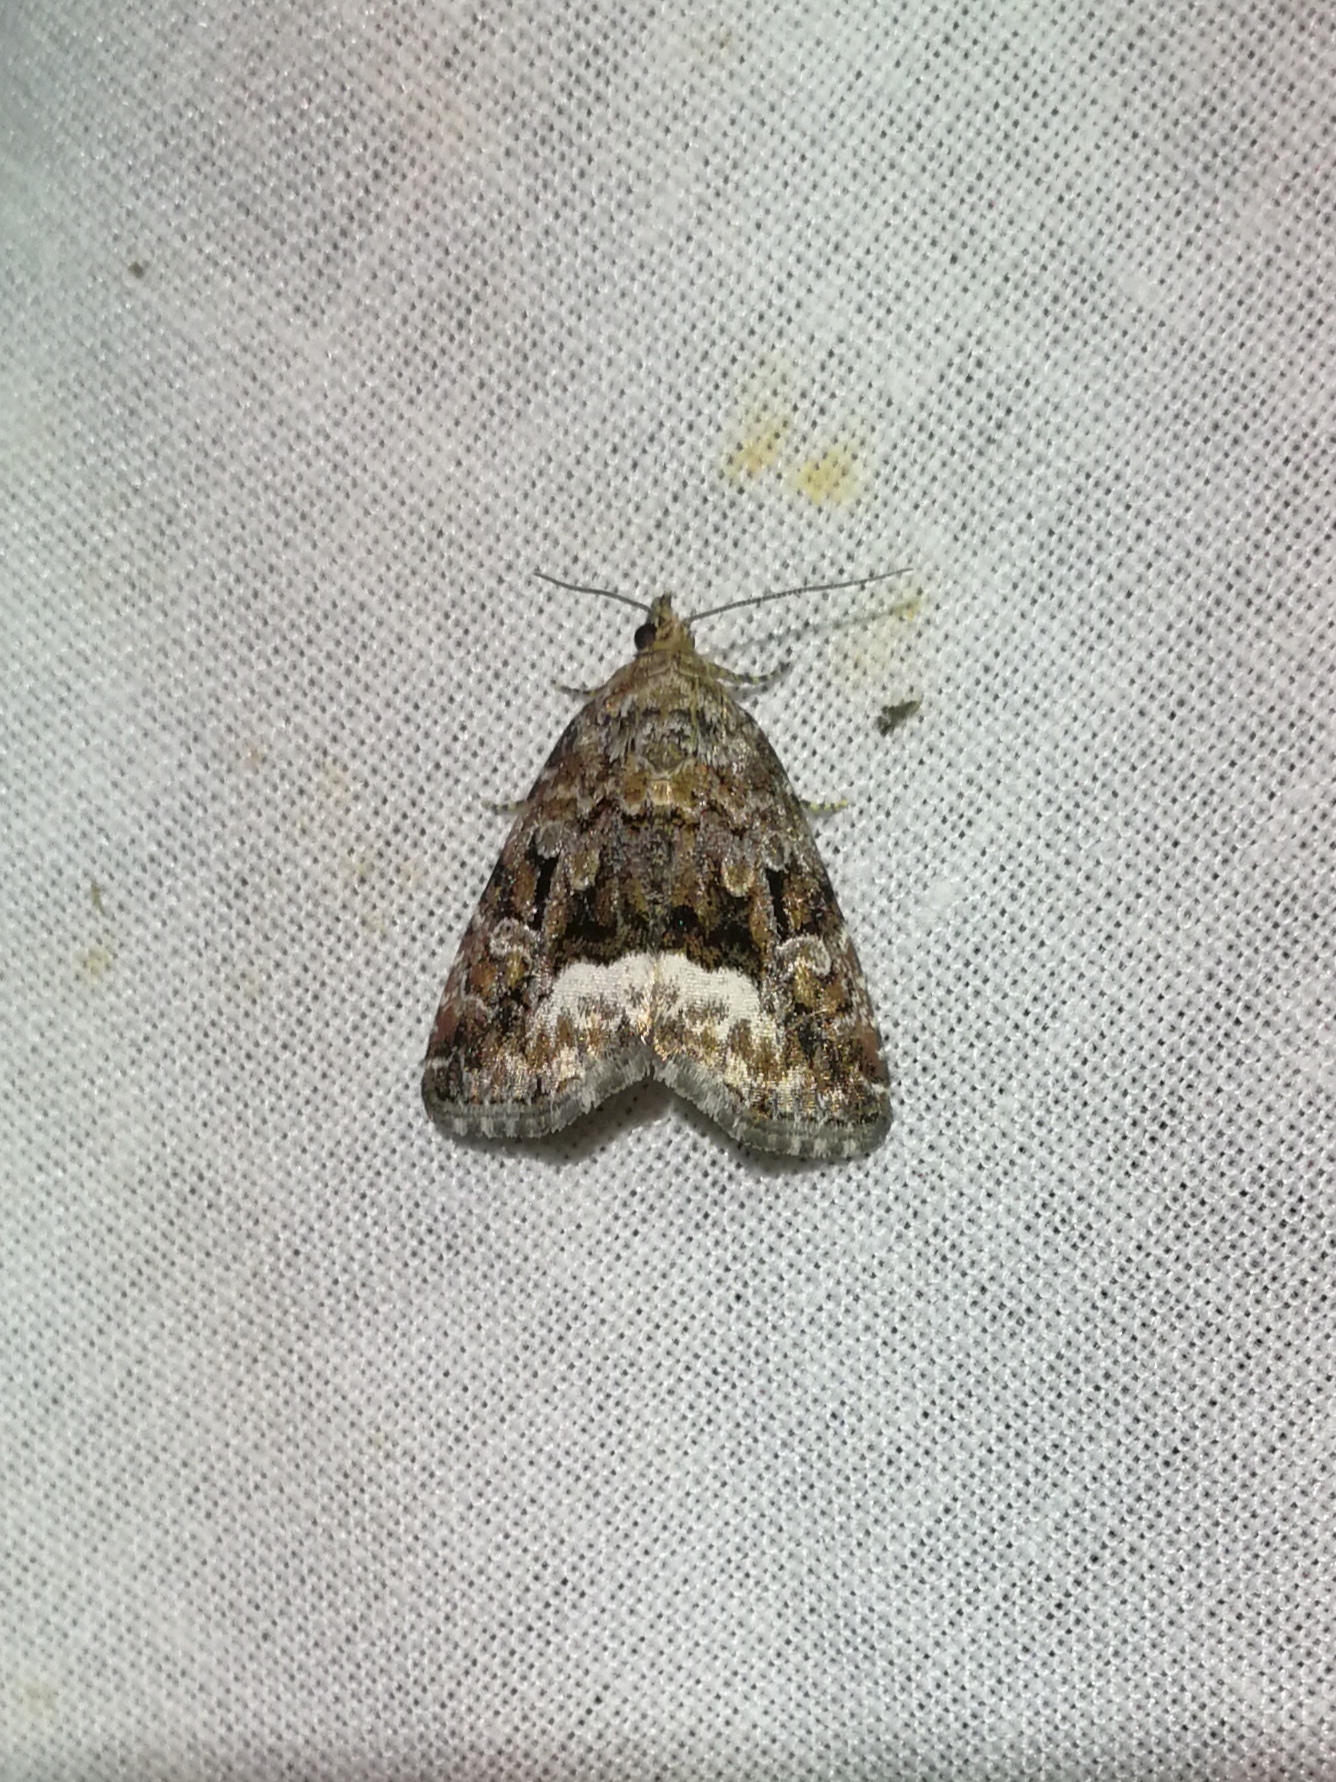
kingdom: Animalia
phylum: Arthropoda
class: Insecta
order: Lepidoptera
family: Noctuidae
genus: Deltote
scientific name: Deltote pygarga
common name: Marbled white spot
